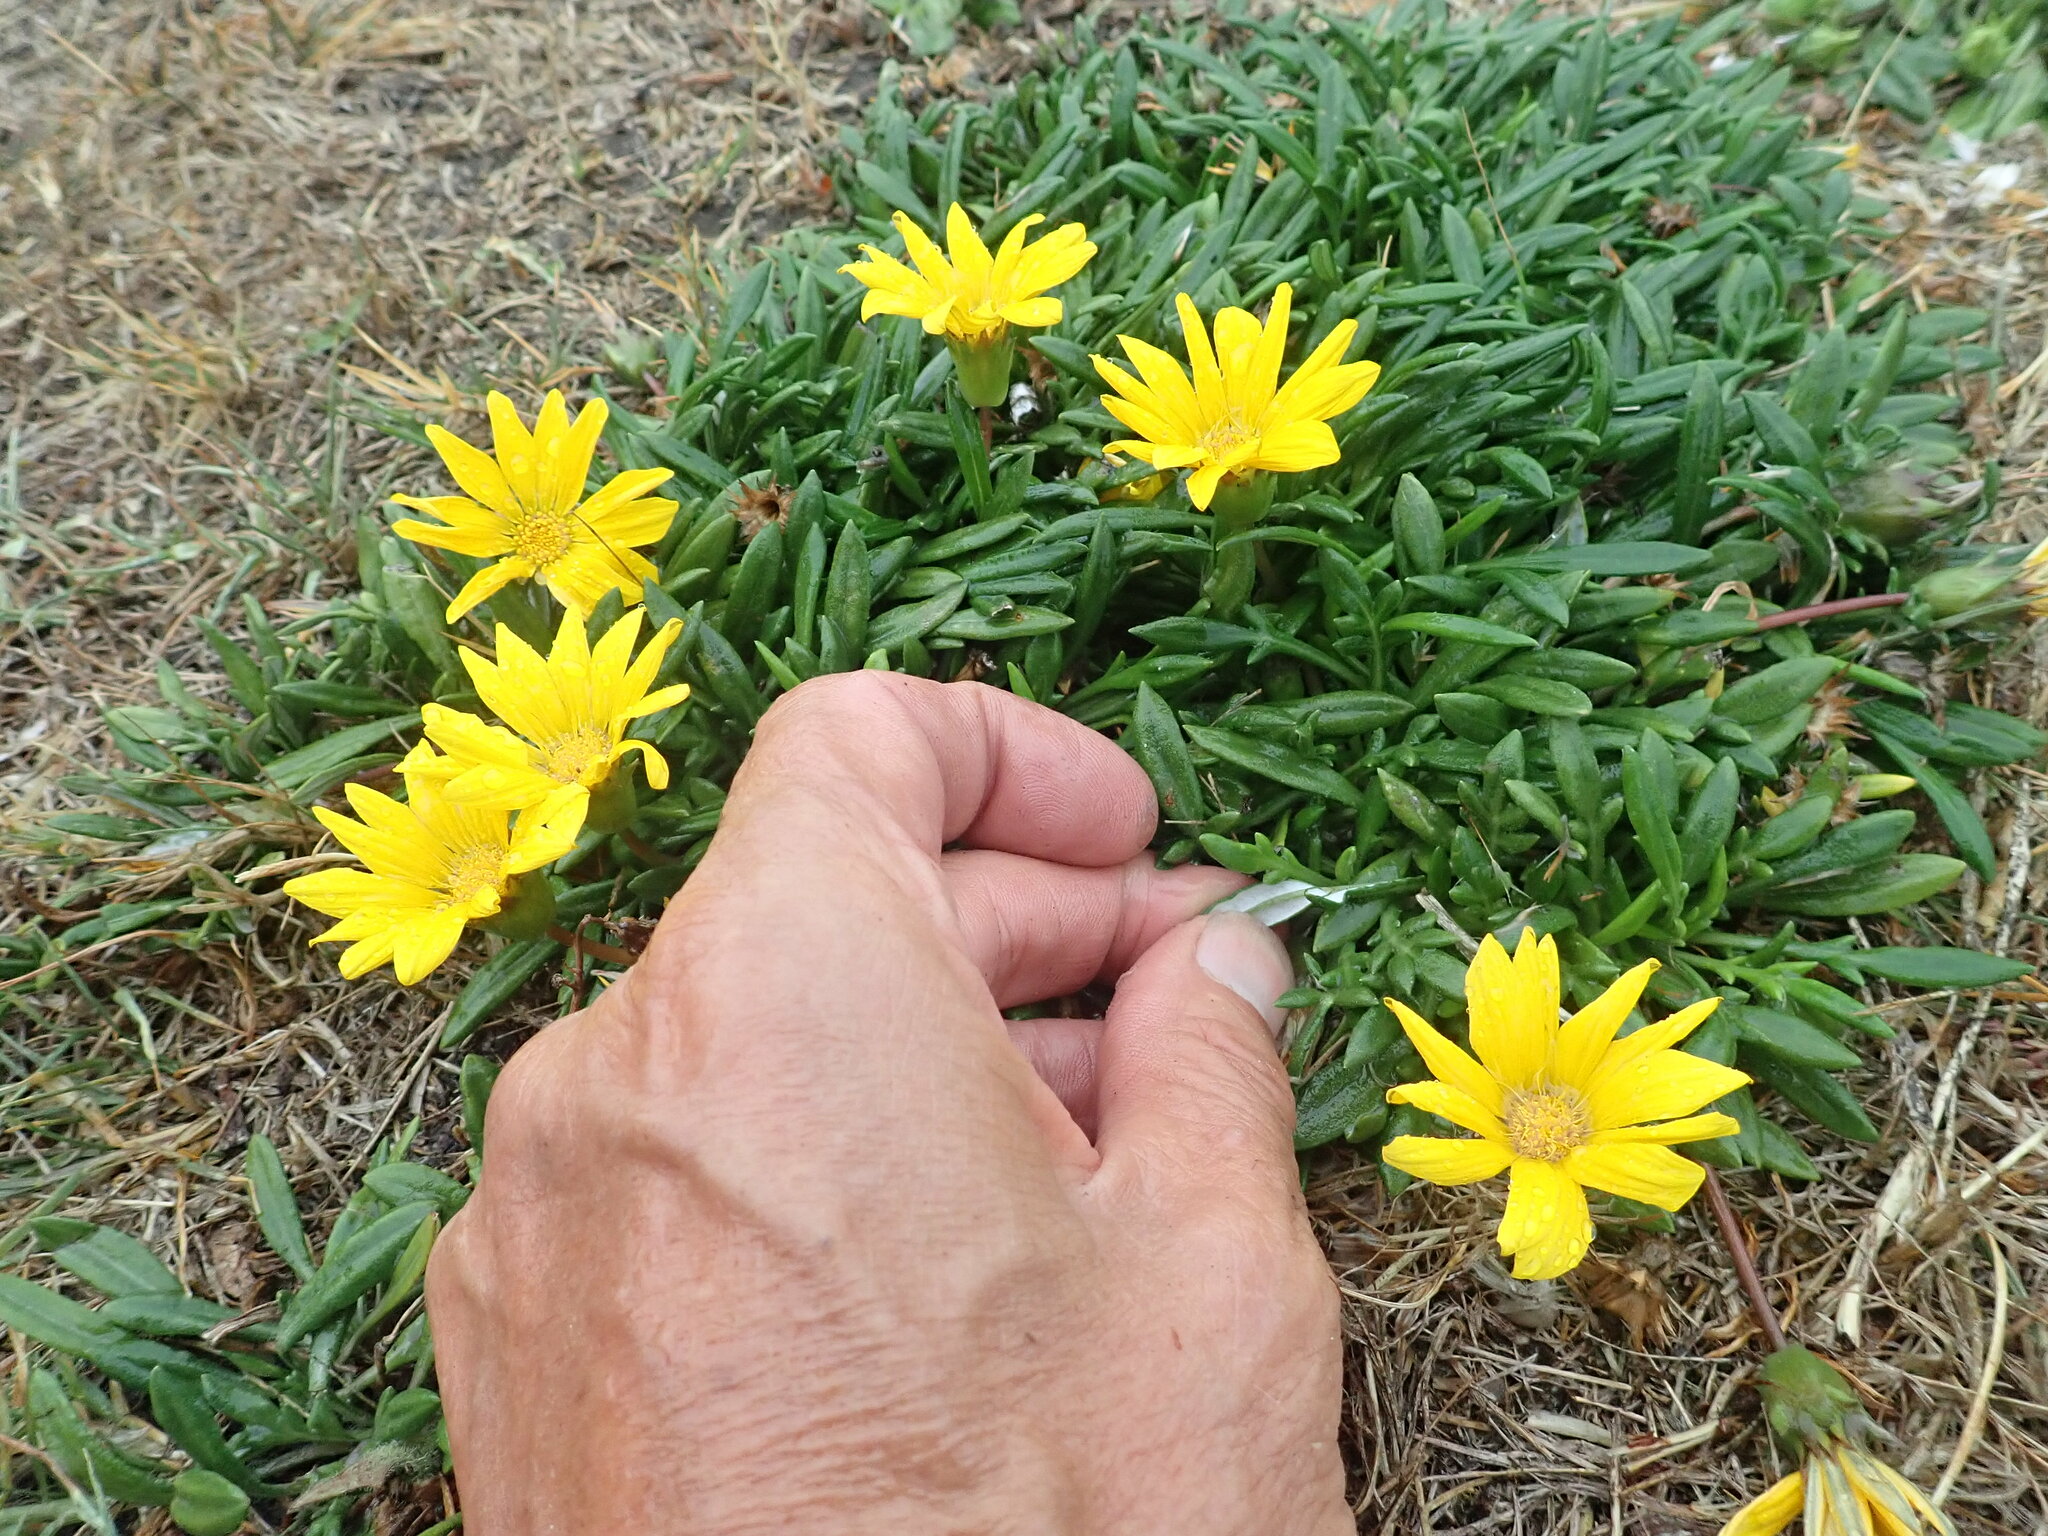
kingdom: Plantae
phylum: Tracheophyta
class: Magnoliopsida
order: Asterales
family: Asteraceae
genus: Gazania
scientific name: Gazania splendens
